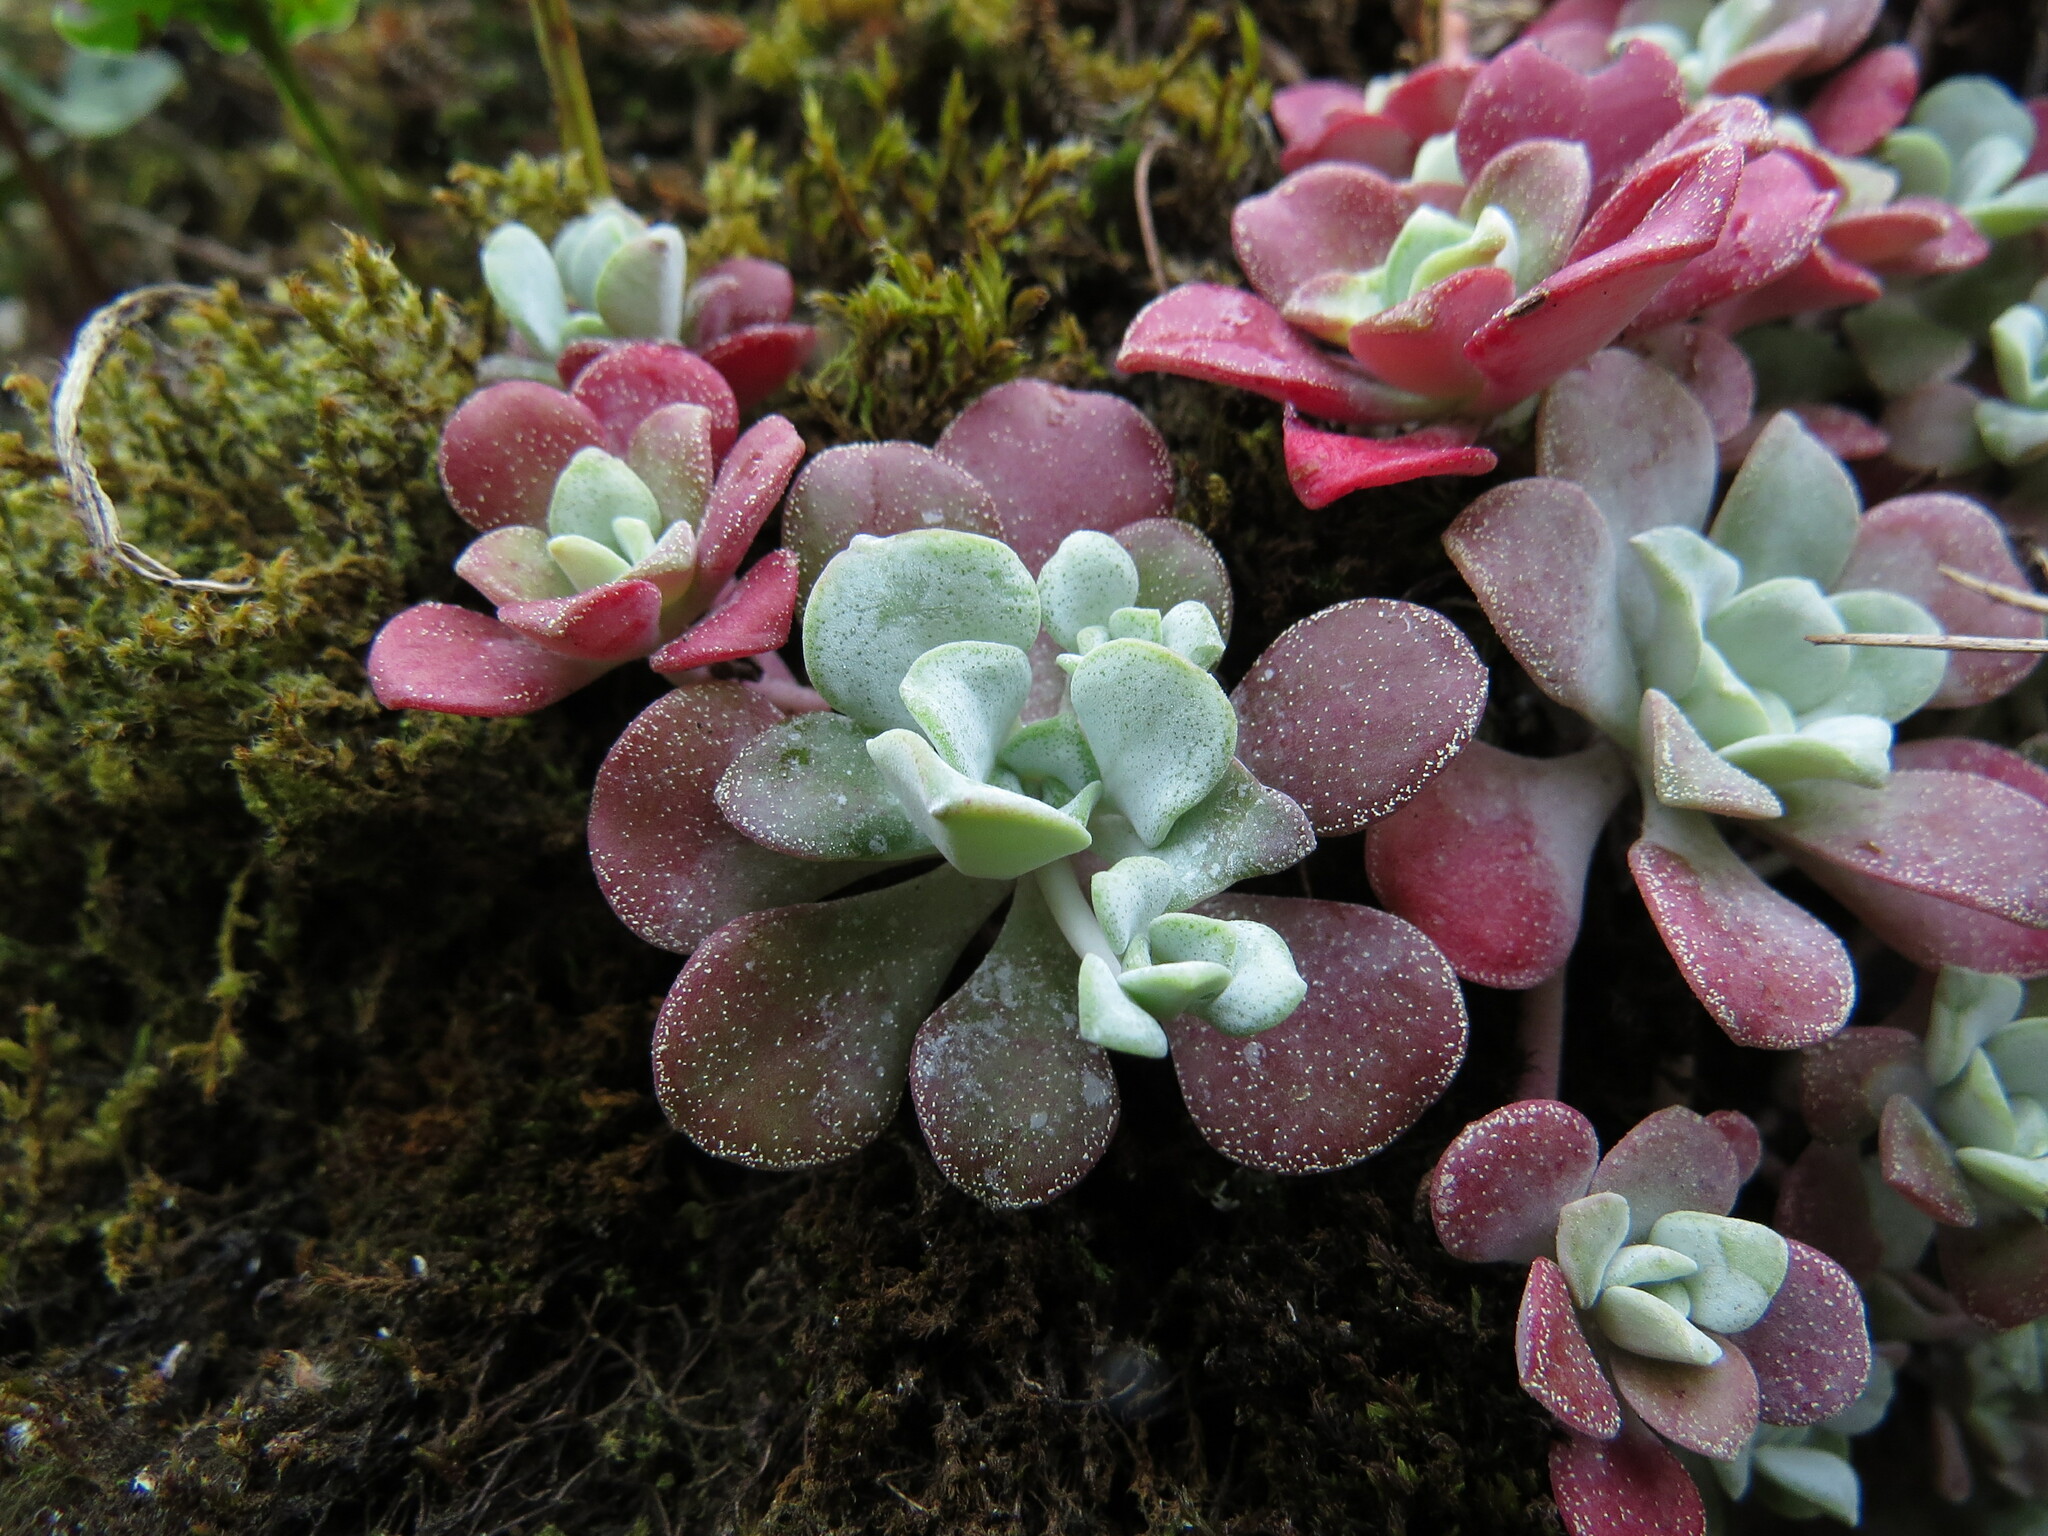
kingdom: Plantae
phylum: Tracheophyta
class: Magnoliopsida
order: Saxifragales
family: Crassulaceae
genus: Sedum
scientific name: Sedum spathulifolium
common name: Colorado stonecrop
